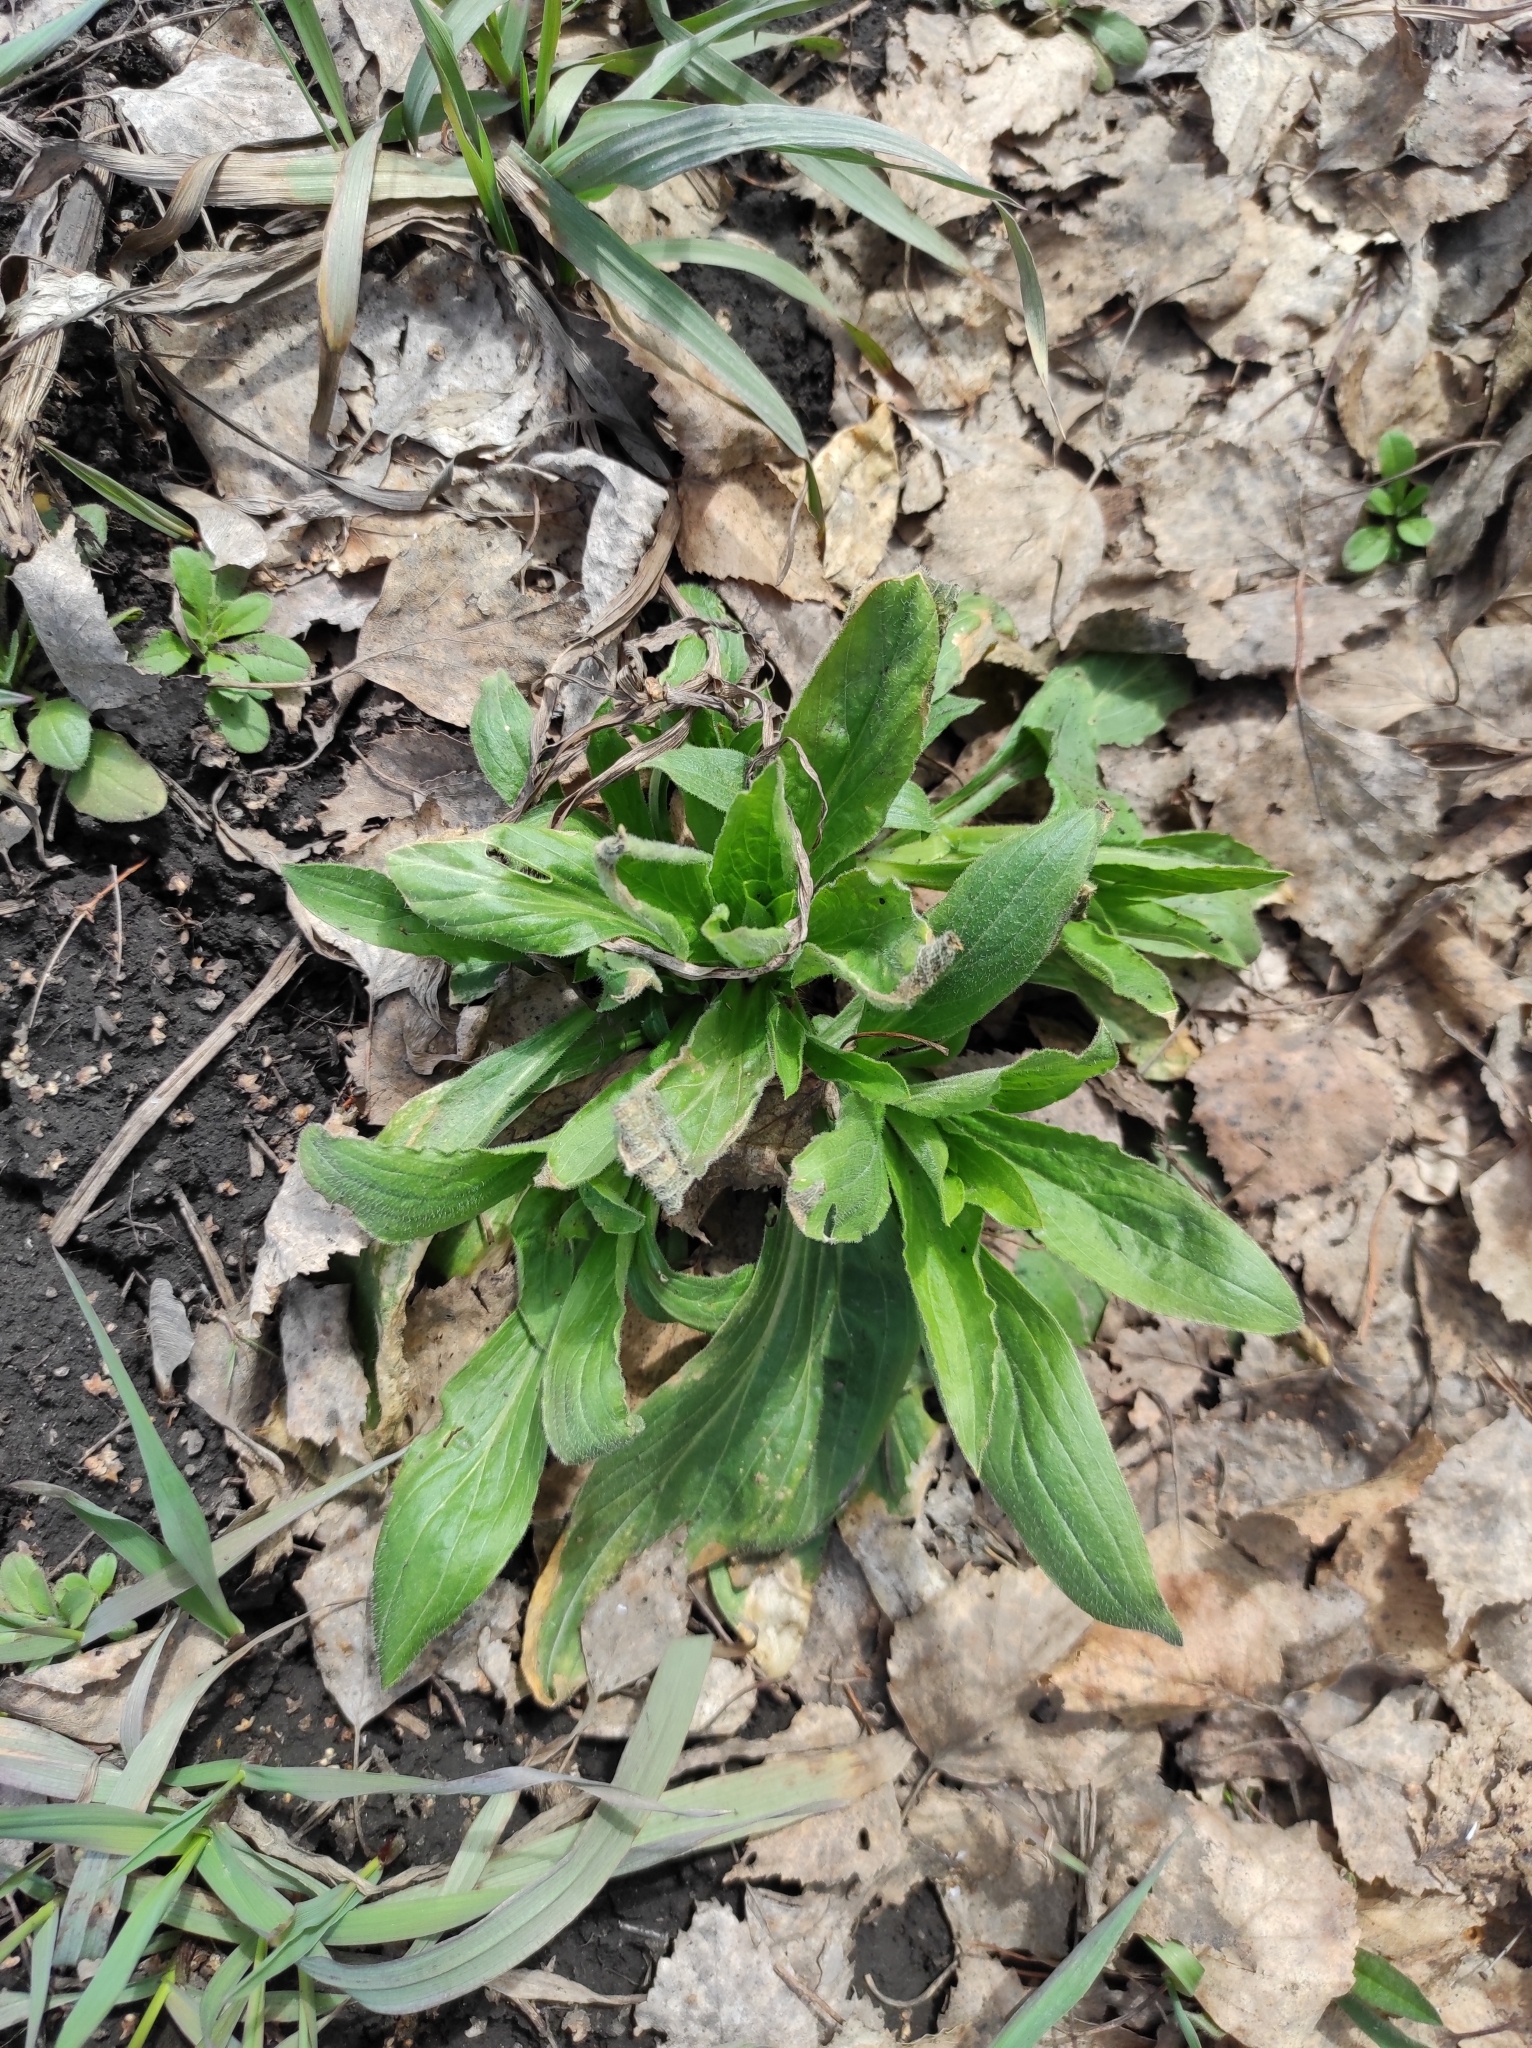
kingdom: Plantae
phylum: Tracheophyta
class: Magnoliopsida
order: Caryophyllales
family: Caryophyllaceae
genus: Silene
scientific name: Silene latifolia
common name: White campion
